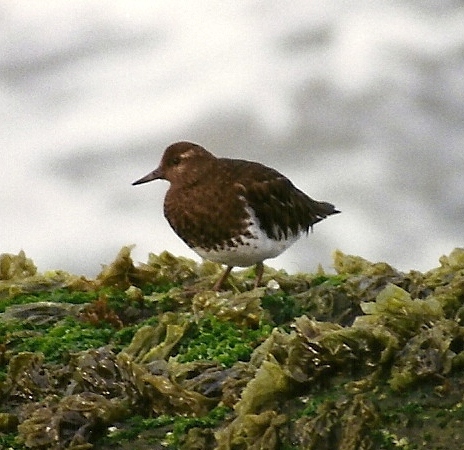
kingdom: Animalia
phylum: Chordata
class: Aves
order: Charadriiformes
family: Scolopacidae
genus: Arenaria
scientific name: Arenaria melanocephala
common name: Black turnstone
